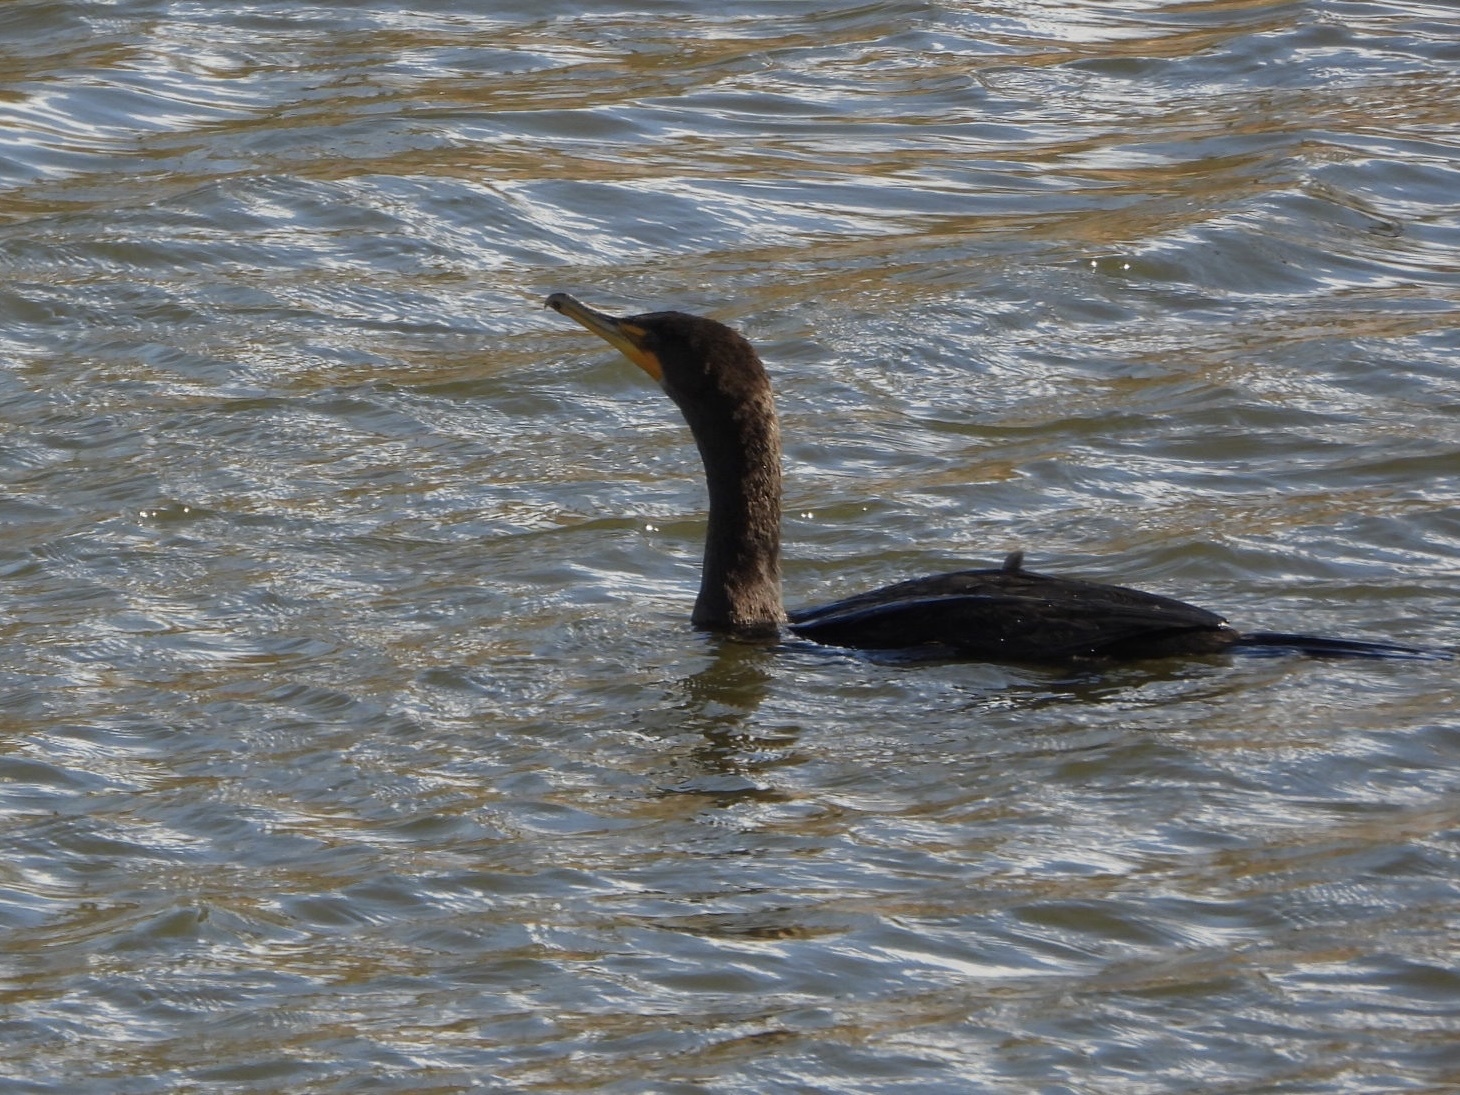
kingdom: Animalia
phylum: Chordata
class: Aves
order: Suliformes
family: Phalacrocoracidae
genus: Phalacrocorax
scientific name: Phalacrocorax auritus
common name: Double-crested cormorant
